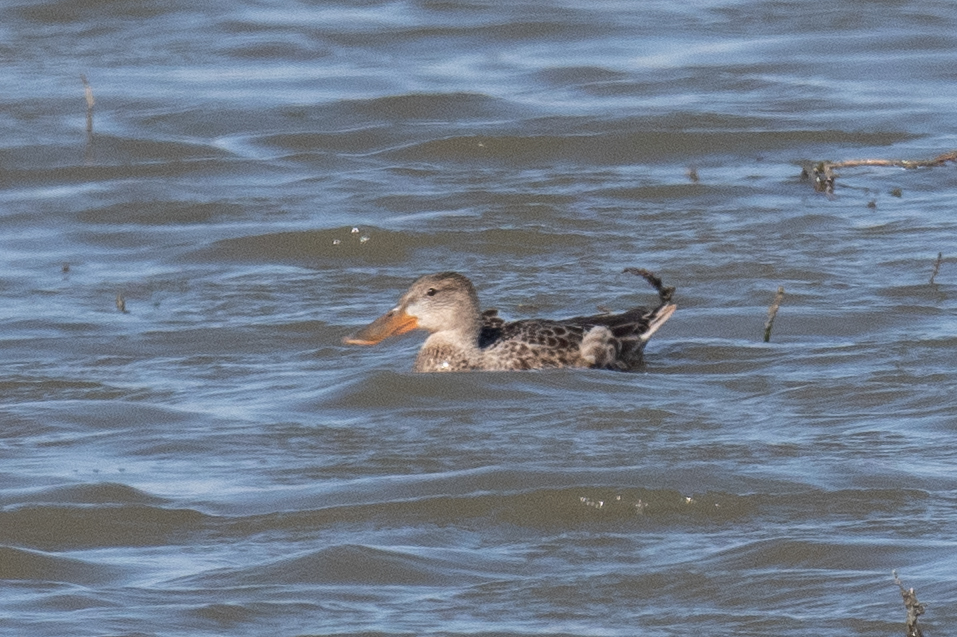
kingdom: Animalia
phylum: Chordata
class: Aves
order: Anseriformes
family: Anatidae
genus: Spatula
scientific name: Spatula clypeata
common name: Northern shoveler
